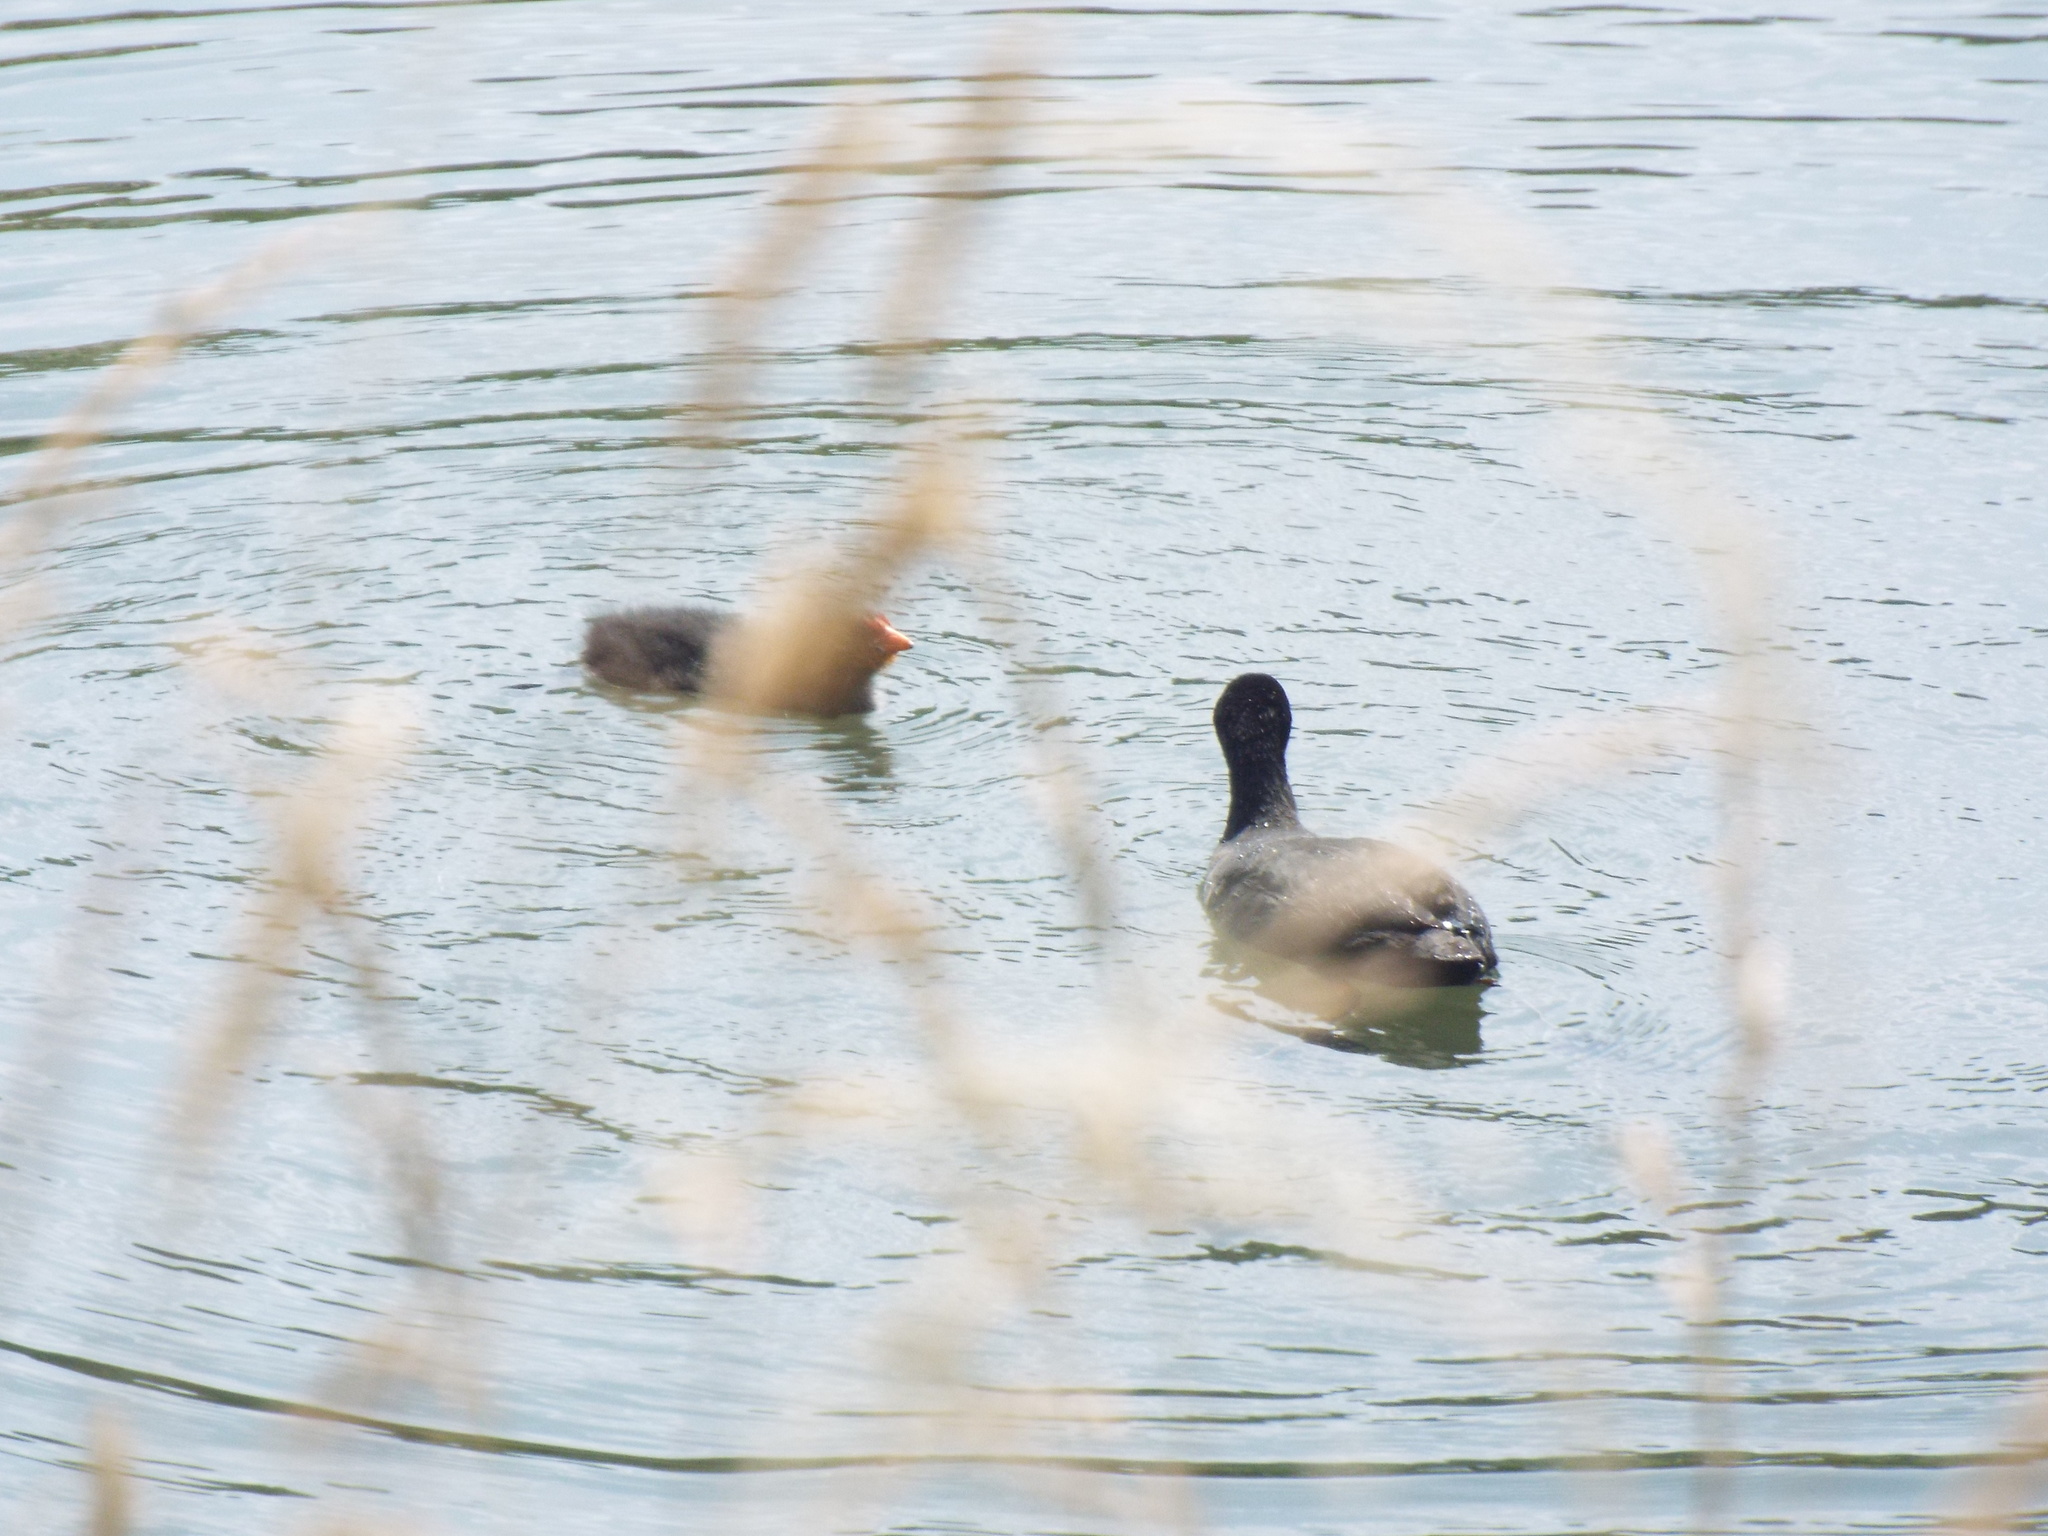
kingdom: Animalia
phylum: Chordata
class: Aves
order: Gruiformes
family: Rallidae
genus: Fulica
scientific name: Fulica atra
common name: Eurasian coot
